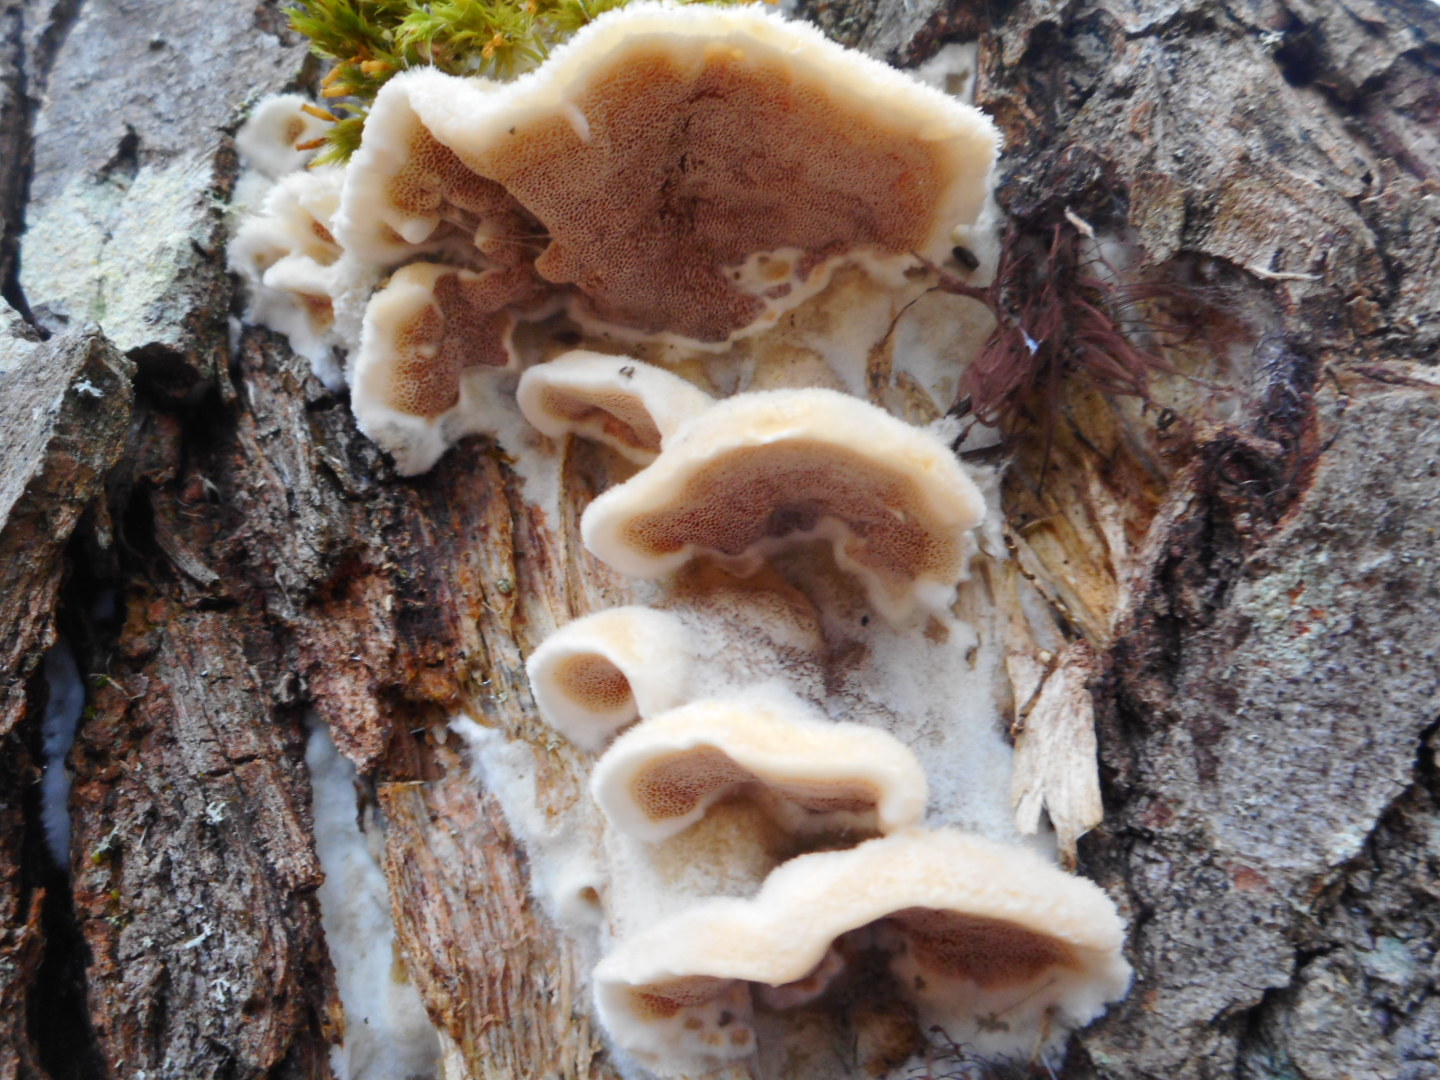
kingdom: Fungi
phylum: Basidiomycota
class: Agaricomycetes
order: Polyporales
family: Irpicaceae
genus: Vitreoporus
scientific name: Vitreoporus dichrous
